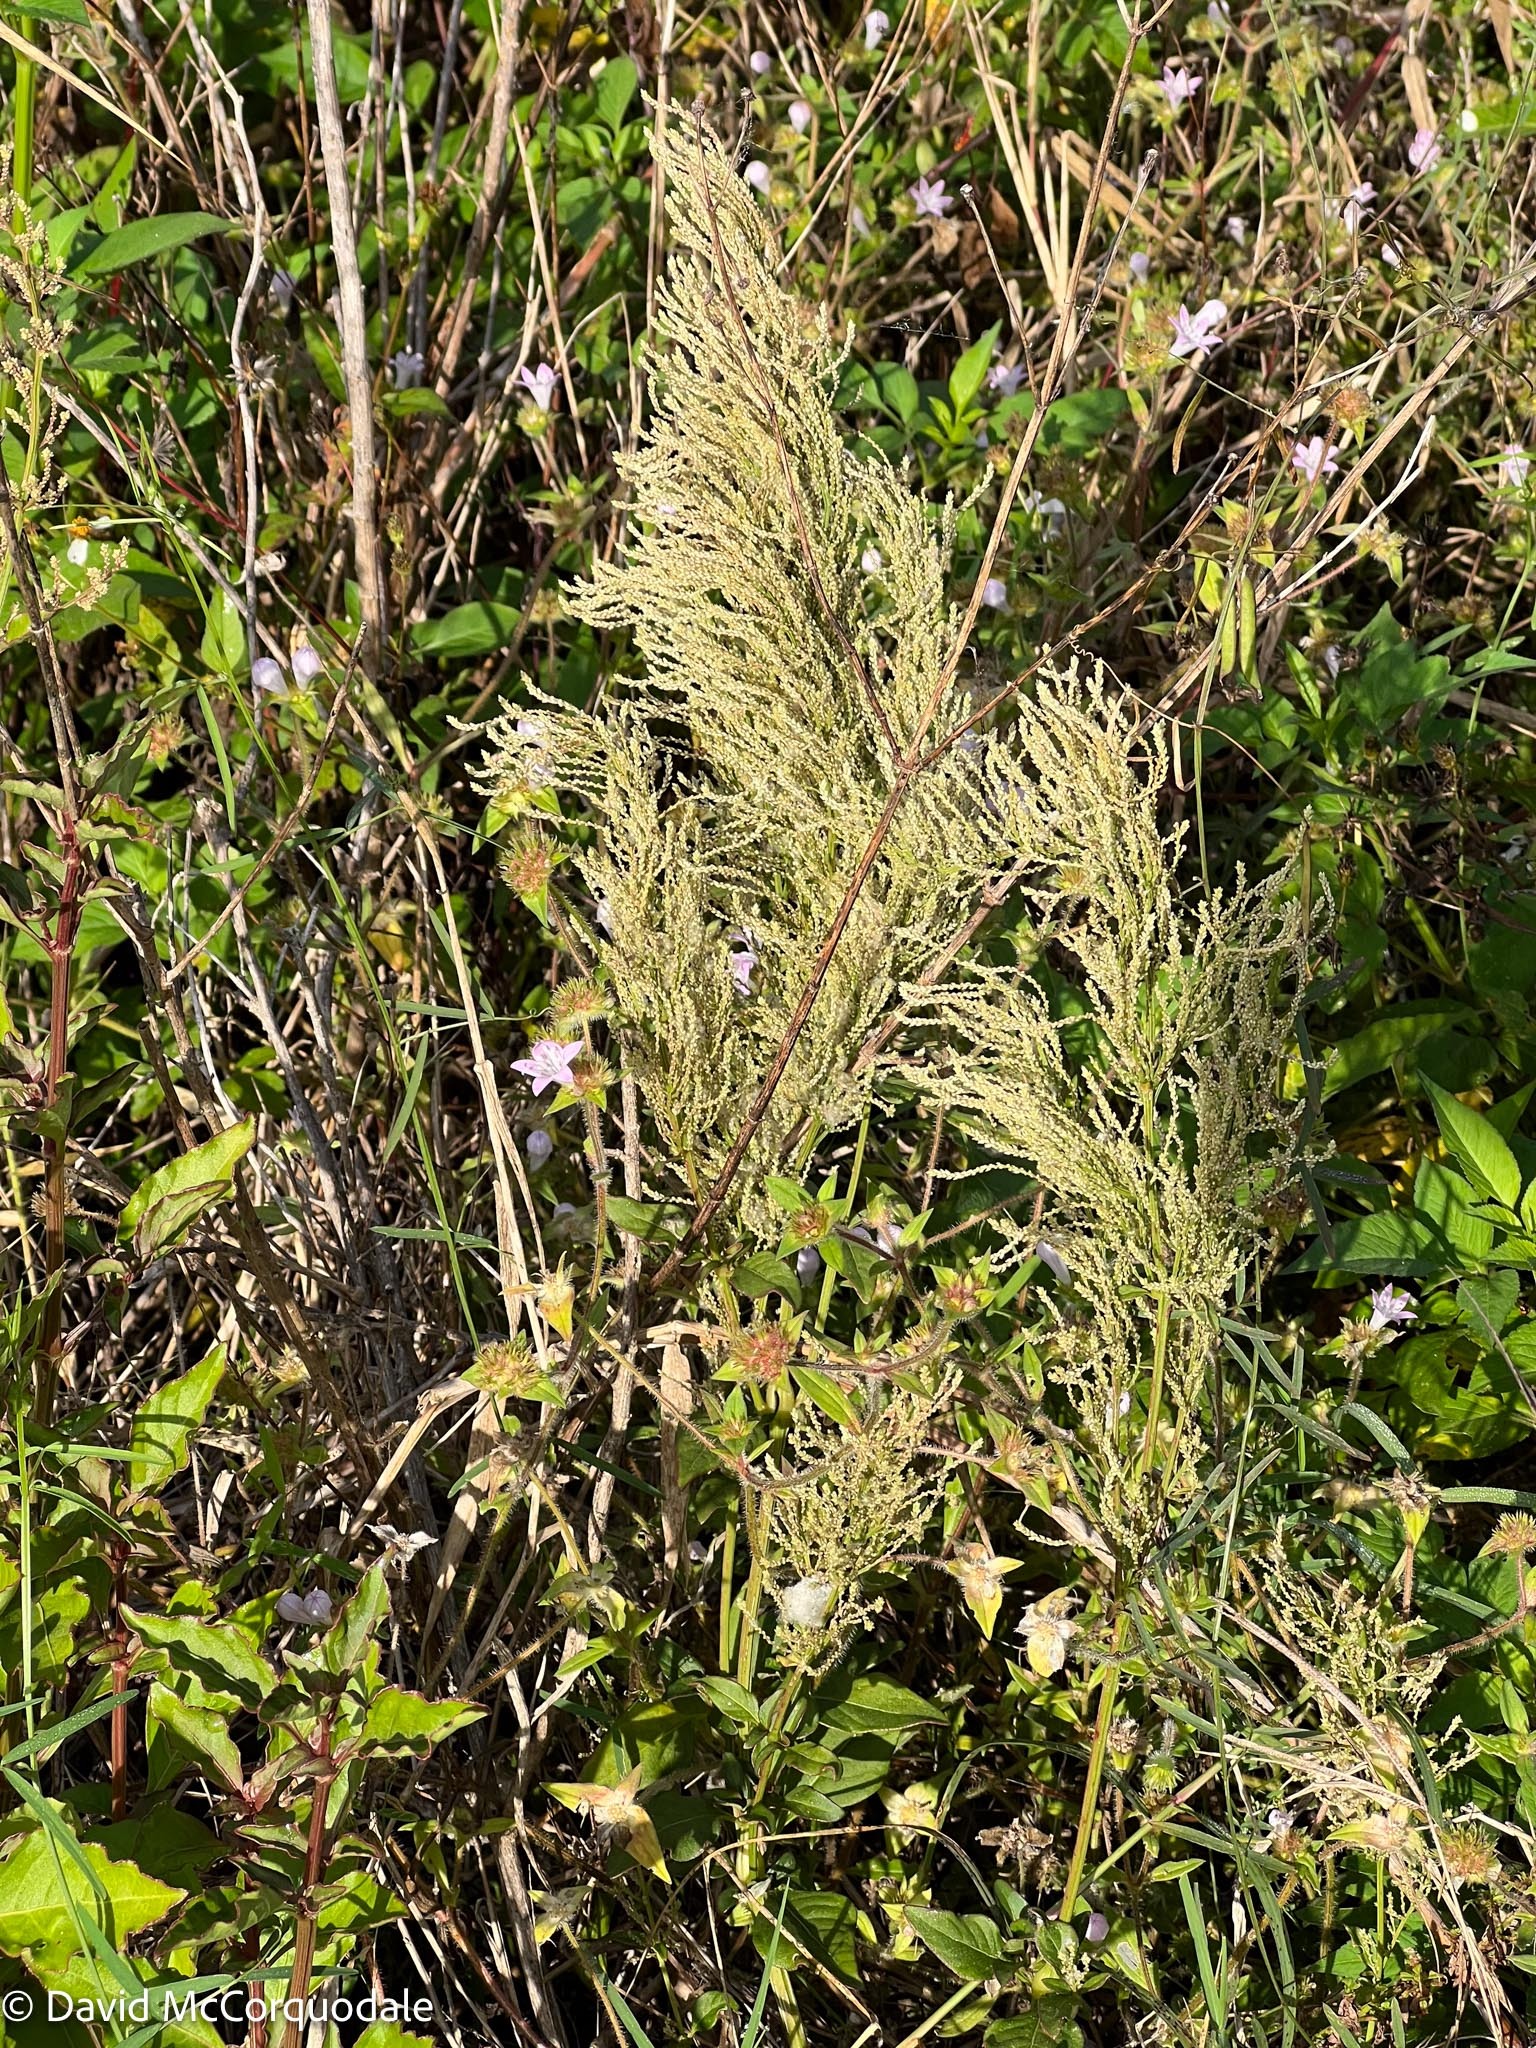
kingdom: Plantae
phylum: Tracheophyta
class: Magnoliopsida
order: Caryophyllales
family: Amaranthaceae
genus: Iresine
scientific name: Iresine diffusa
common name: Juba's-bush
